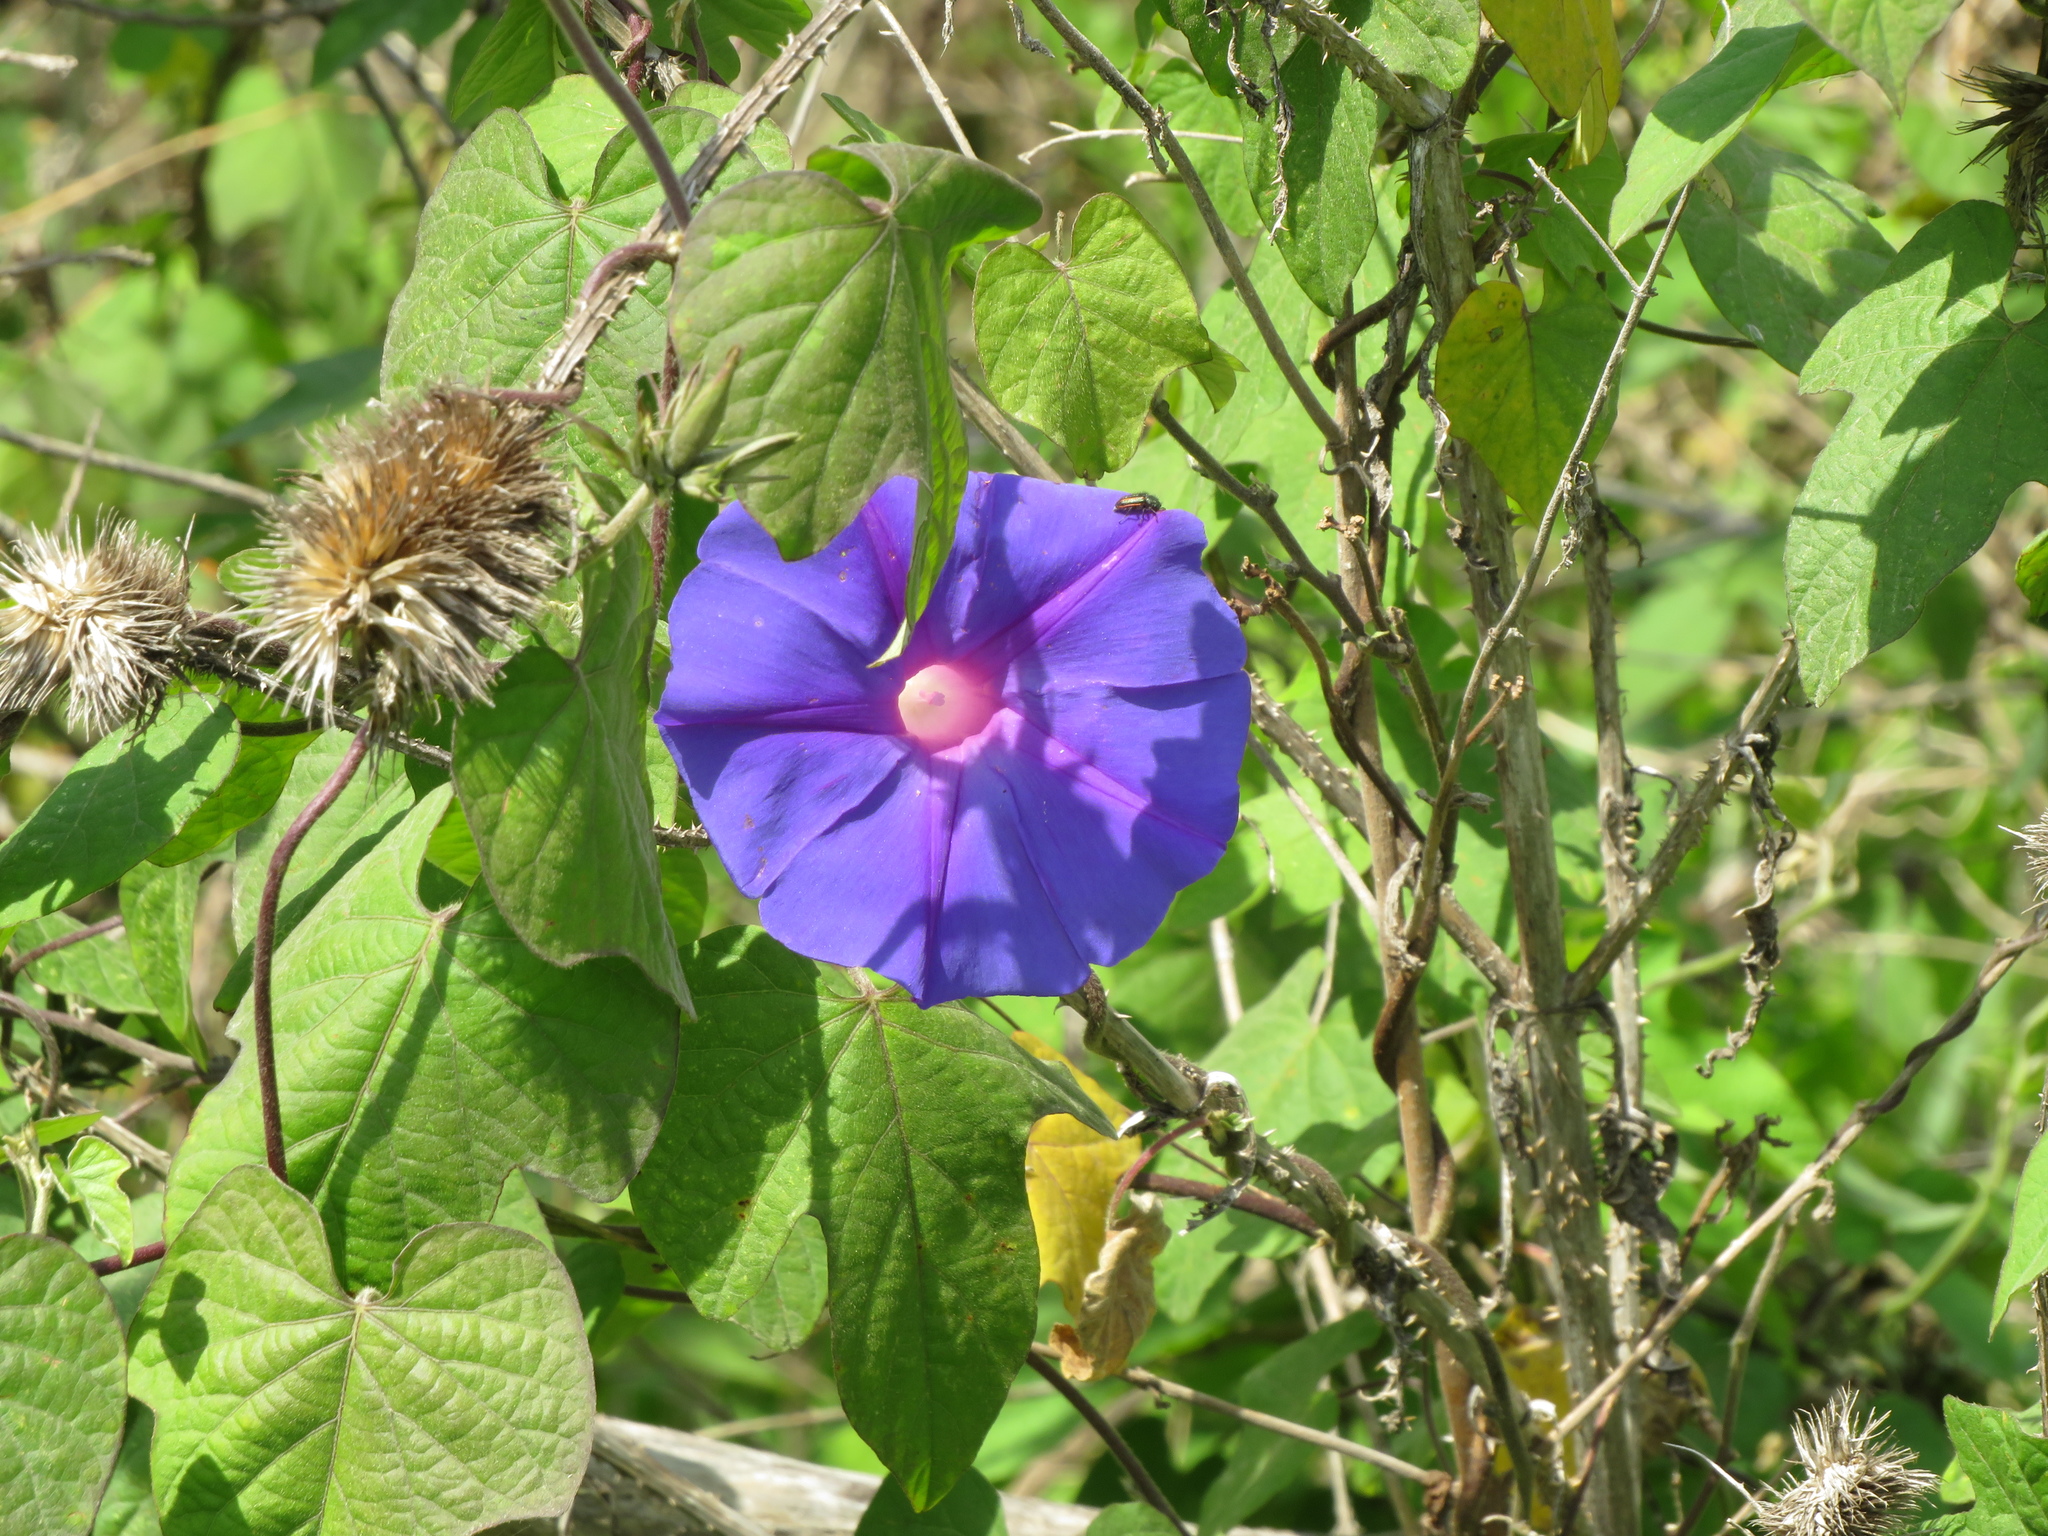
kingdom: Plantae
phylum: Tracheophyta
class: Magnoliopsida
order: Solanales
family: Convolvulaceae
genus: Ipomoea
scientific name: Ipomoea indica
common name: Blue dawnflower
